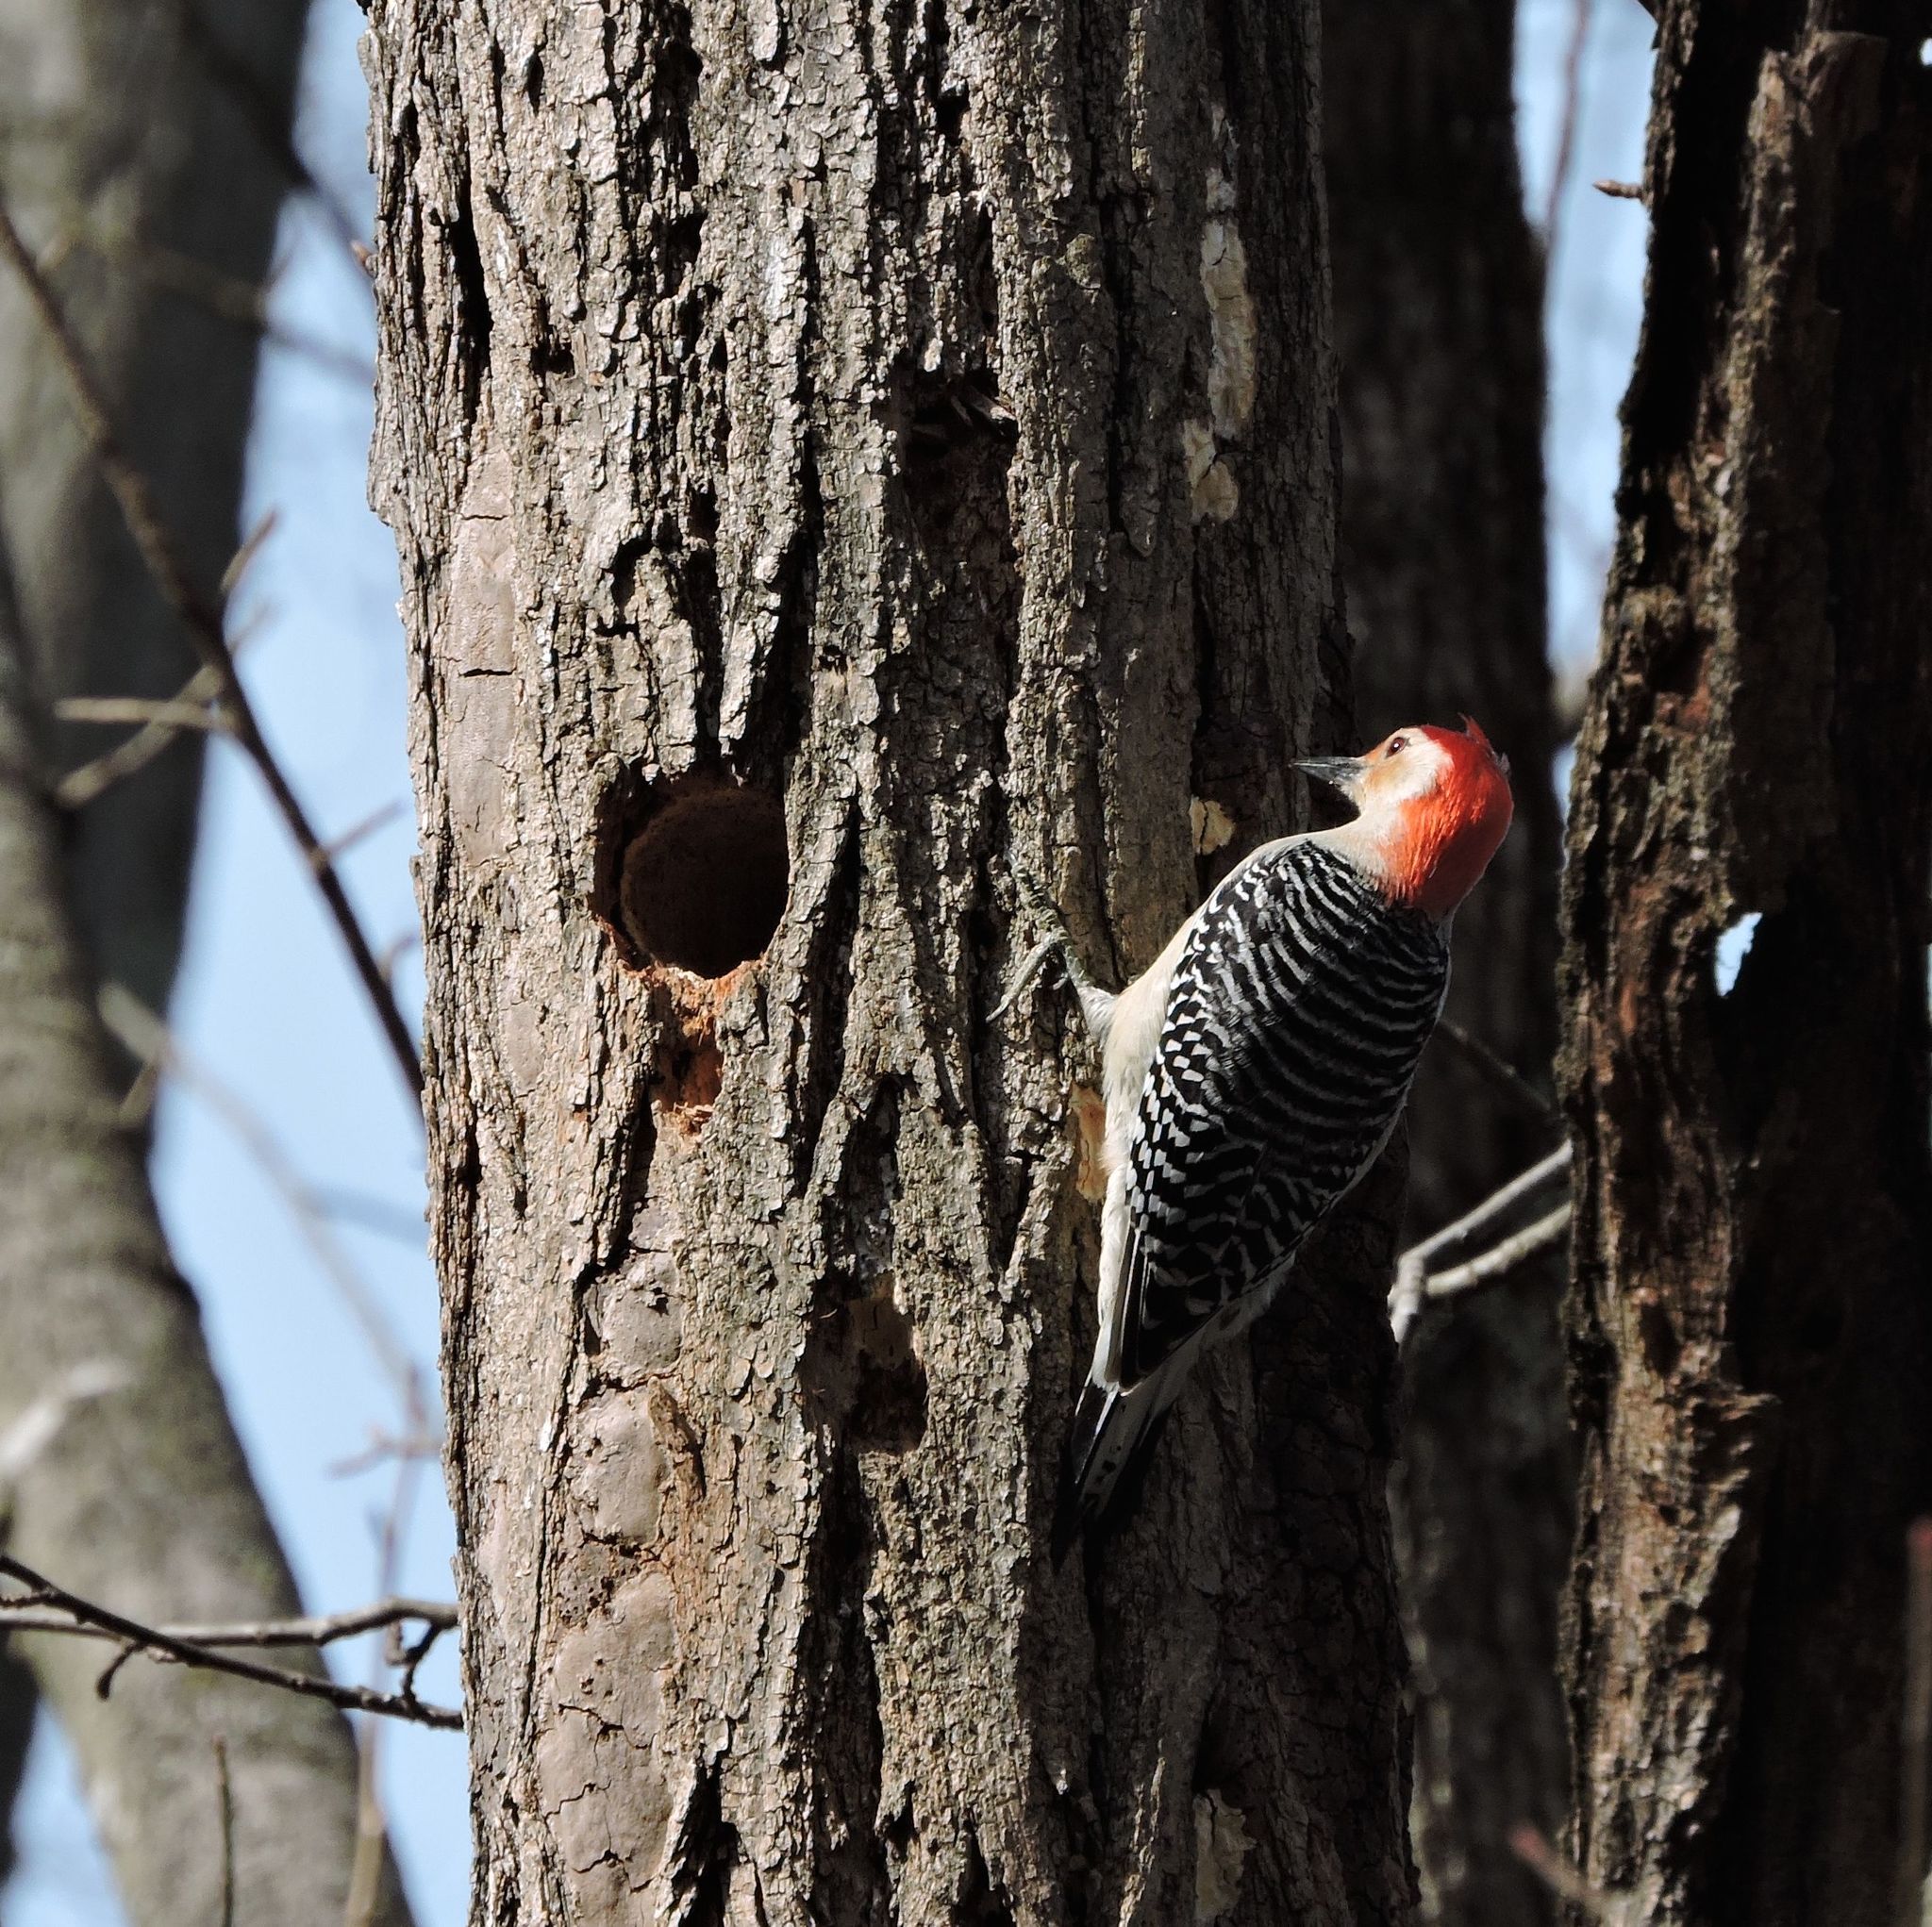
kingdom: Animalia
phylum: Chordata
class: Aves
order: Piciformes
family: Picidae
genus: Melanerpes
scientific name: Melanerpes carolinus
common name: Red-bellied woodpecker
